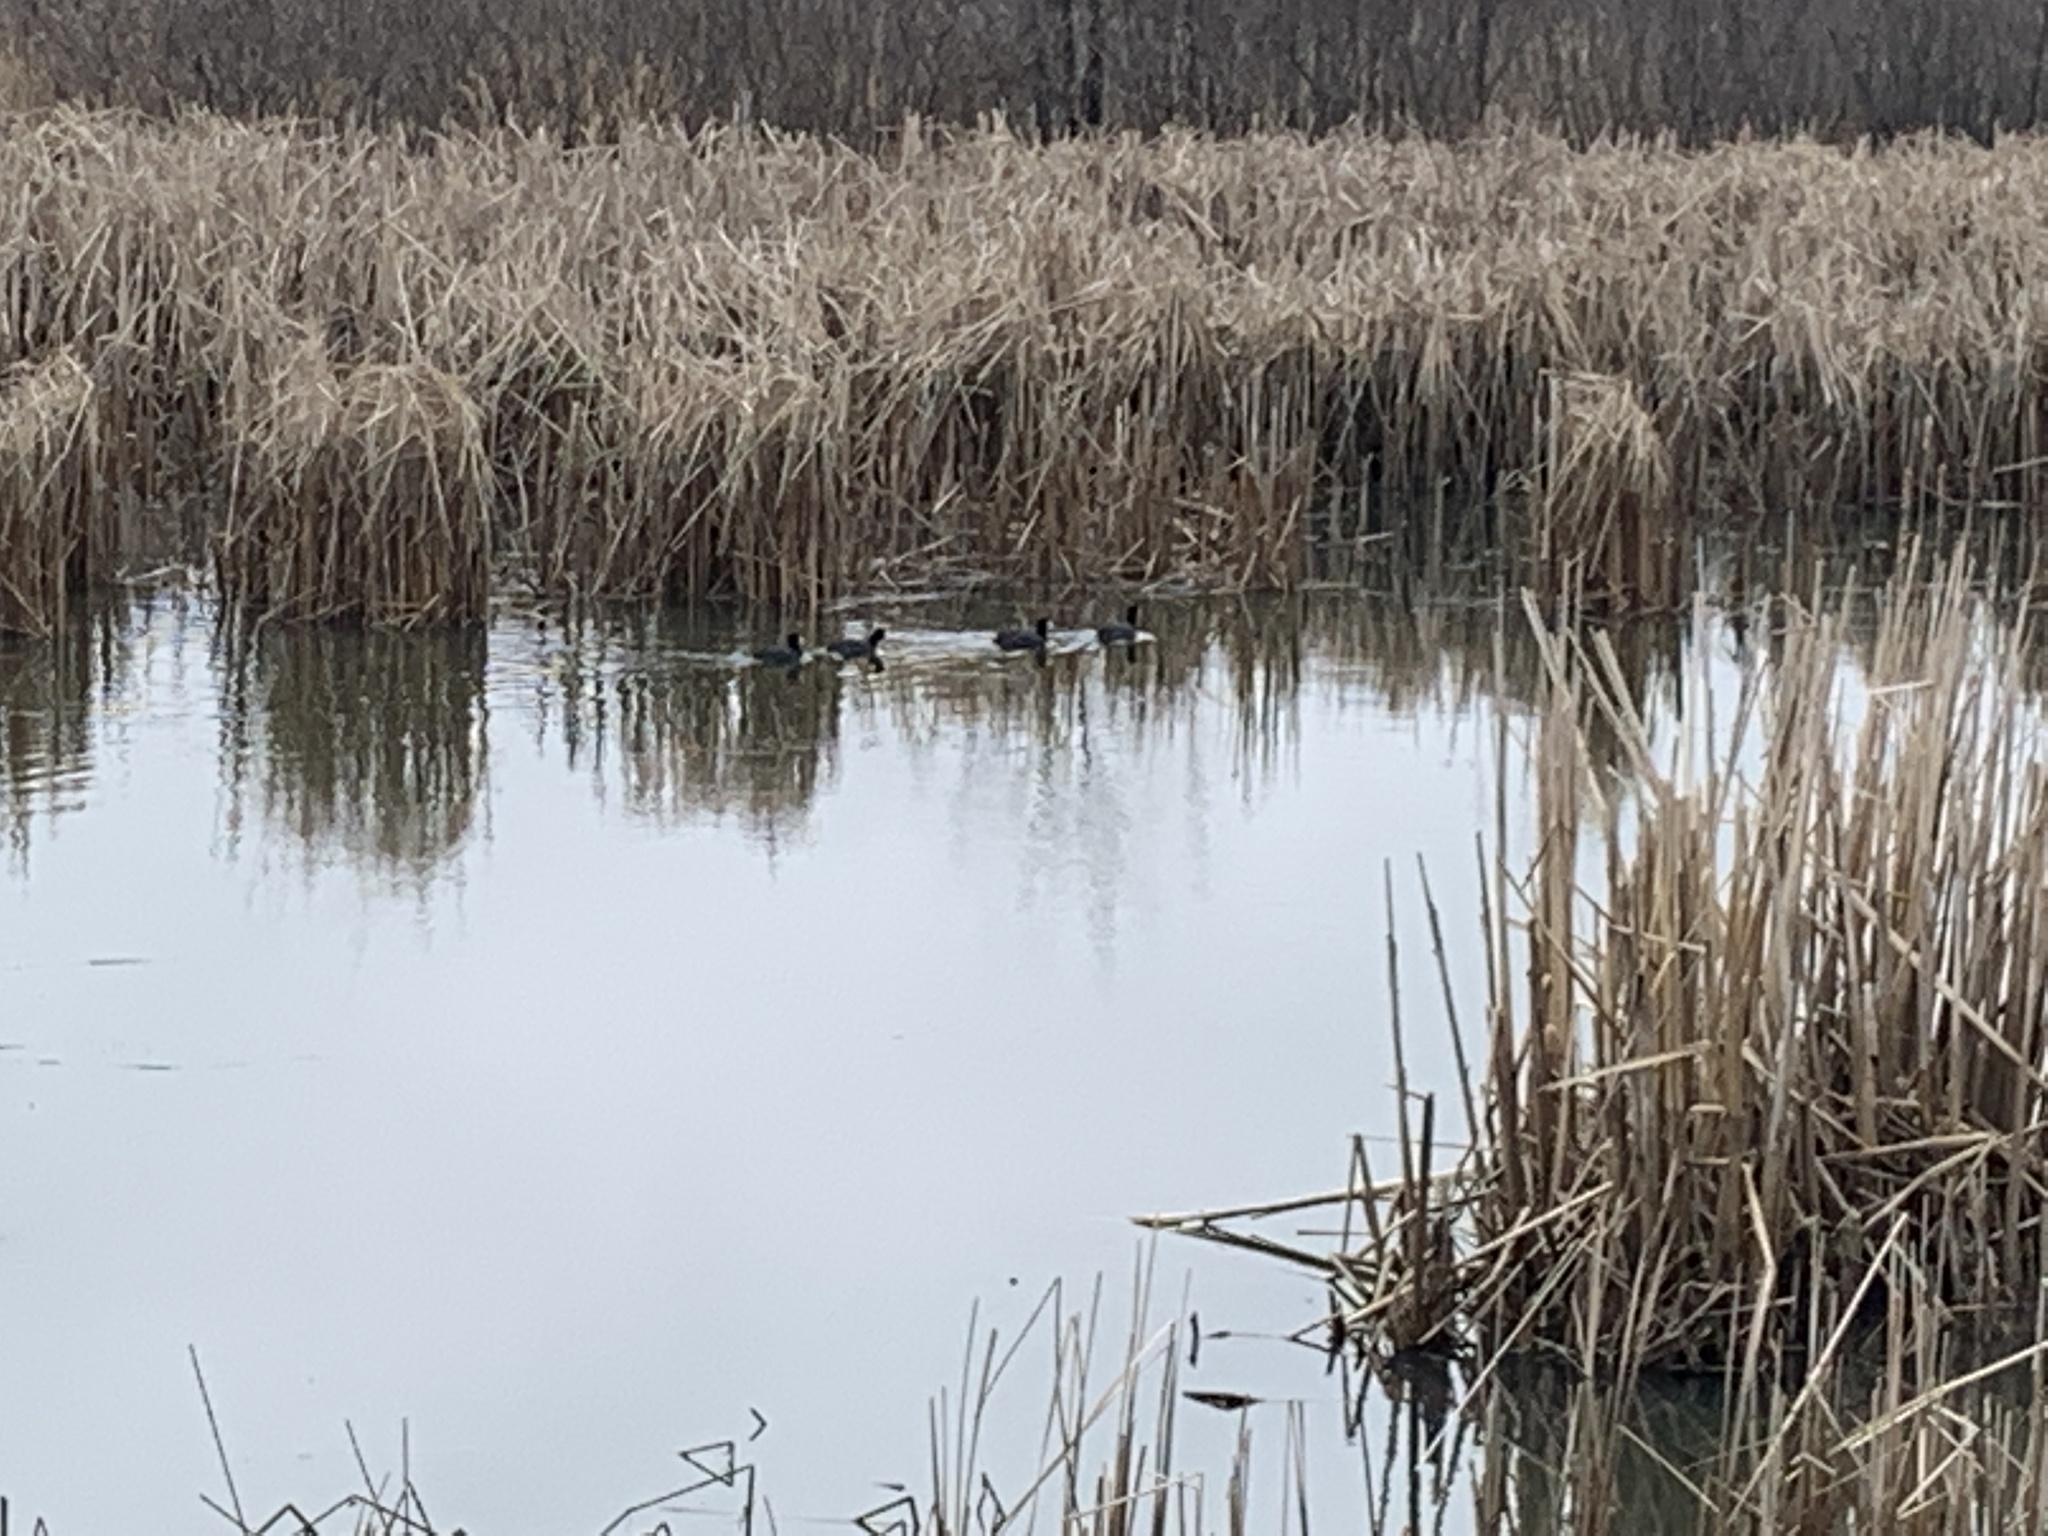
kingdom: Animalia
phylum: Chordata
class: Aves
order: Gruiformes
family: Rallidae
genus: Fulica
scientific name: Fulica americana
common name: American coot
